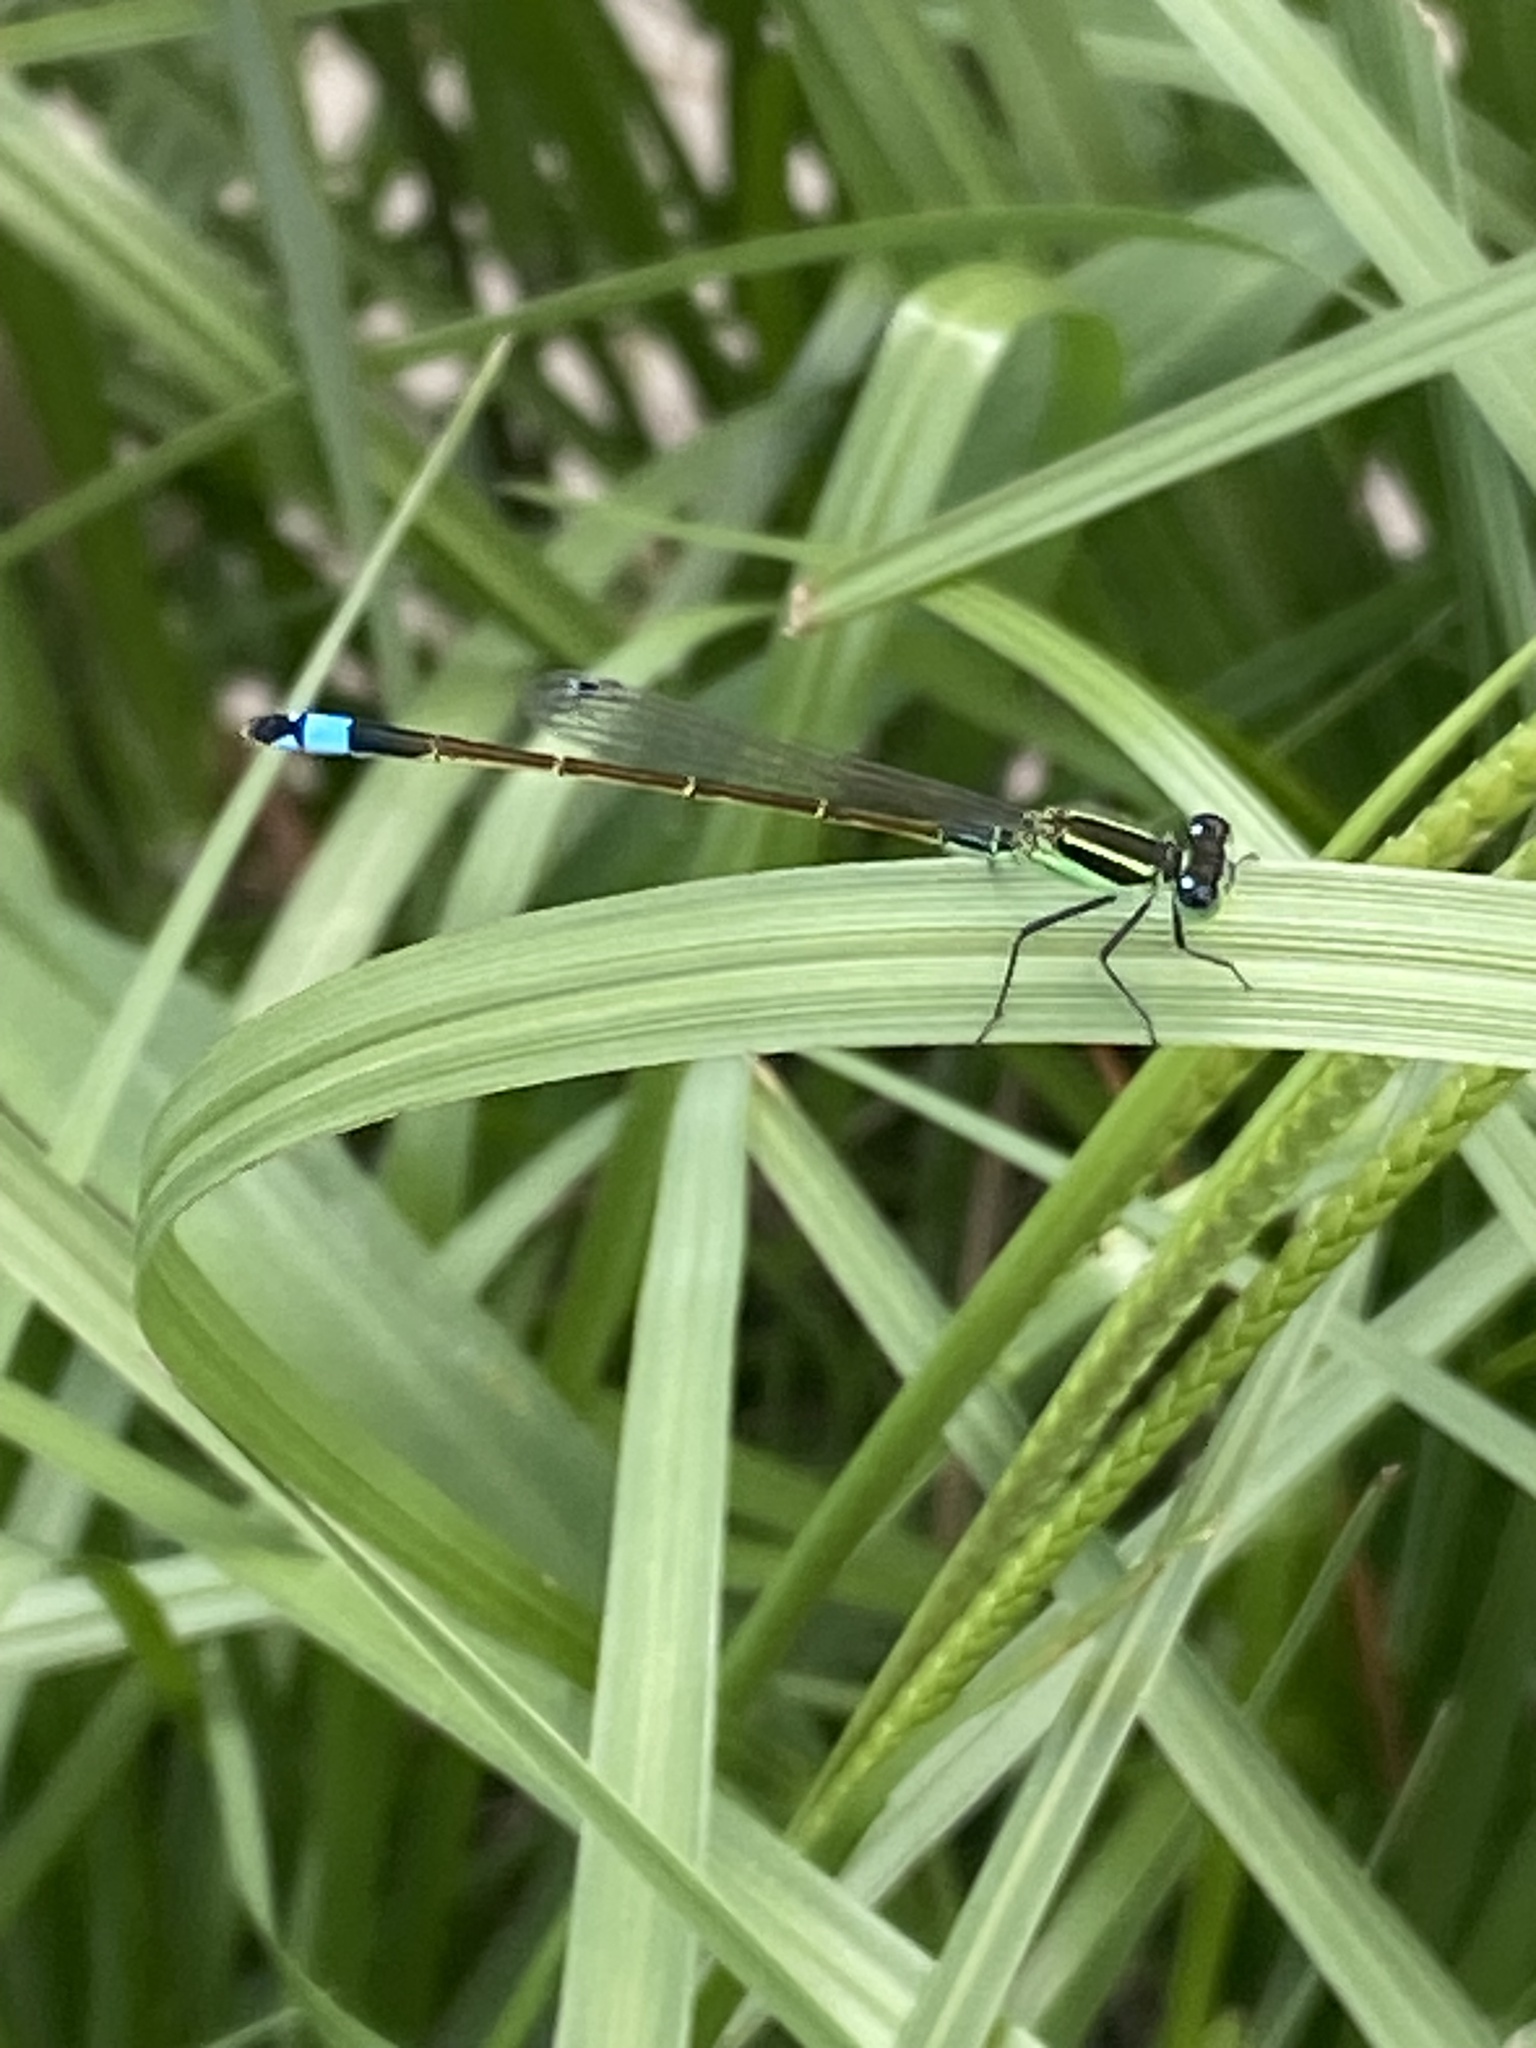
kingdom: Animalia
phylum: Arthropoda
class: Insecta
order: Odonata
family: Coenagrionidae
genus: Ischnura
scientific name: Ischnura ramburii
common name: Rambur's forktail
